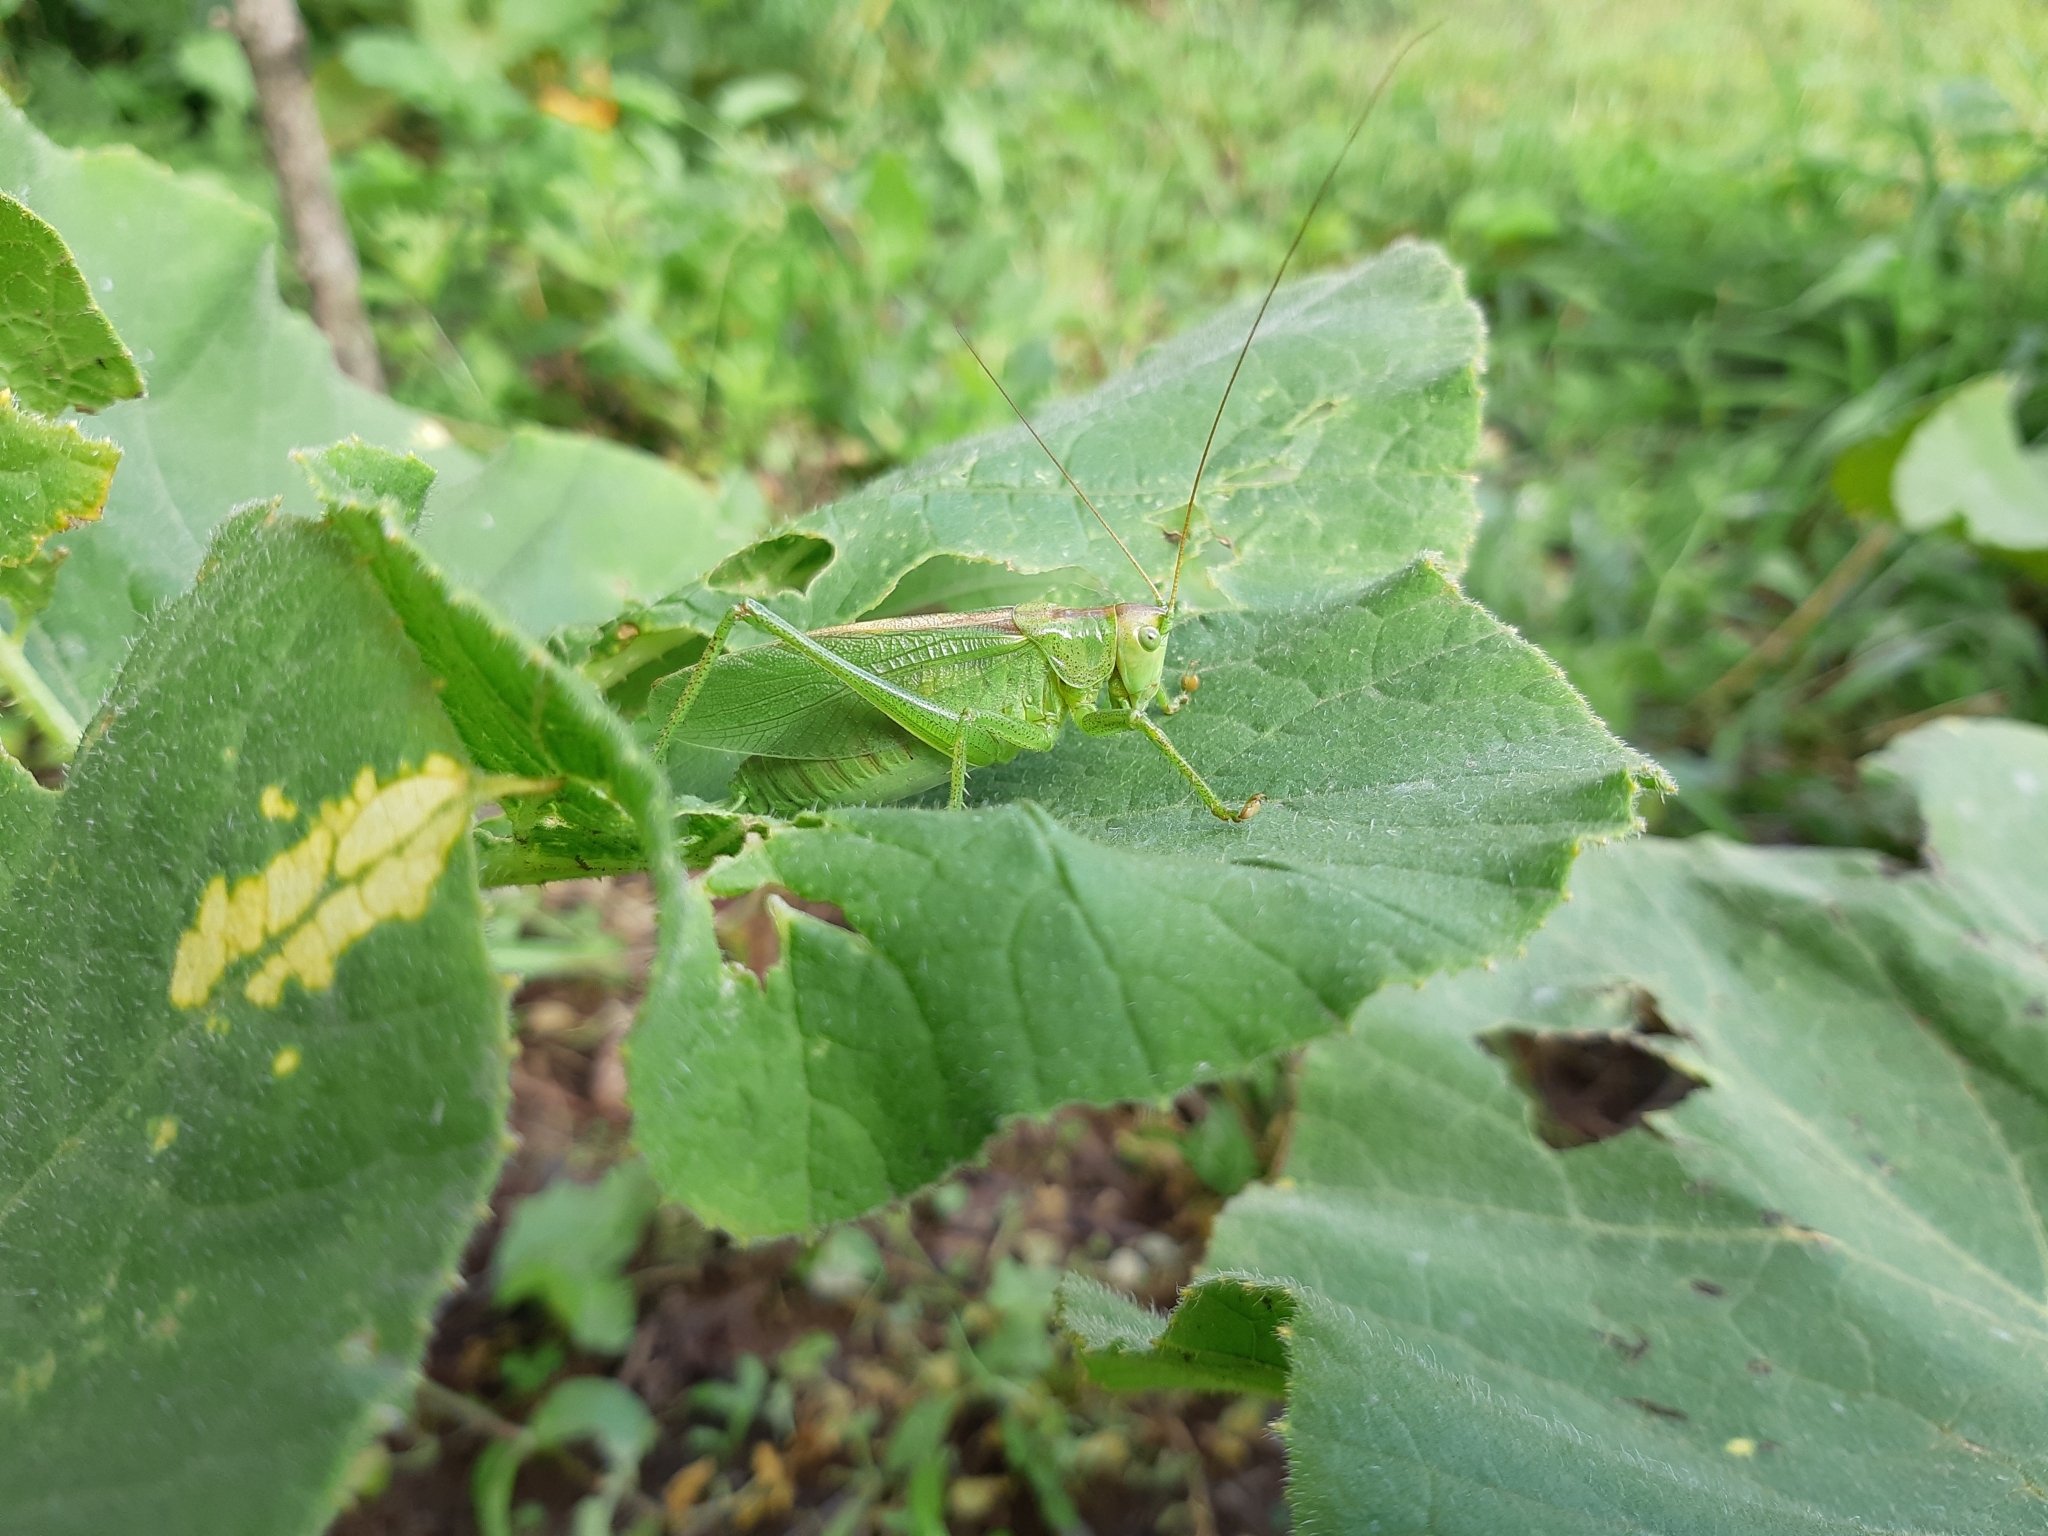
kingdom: Animalia
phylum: Arthropoda
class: Insecta
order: Orthoptera
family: Tettigoniidae
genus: Tettigonia
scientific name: Tettigonia cantans
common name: Upland green bush-cricket
